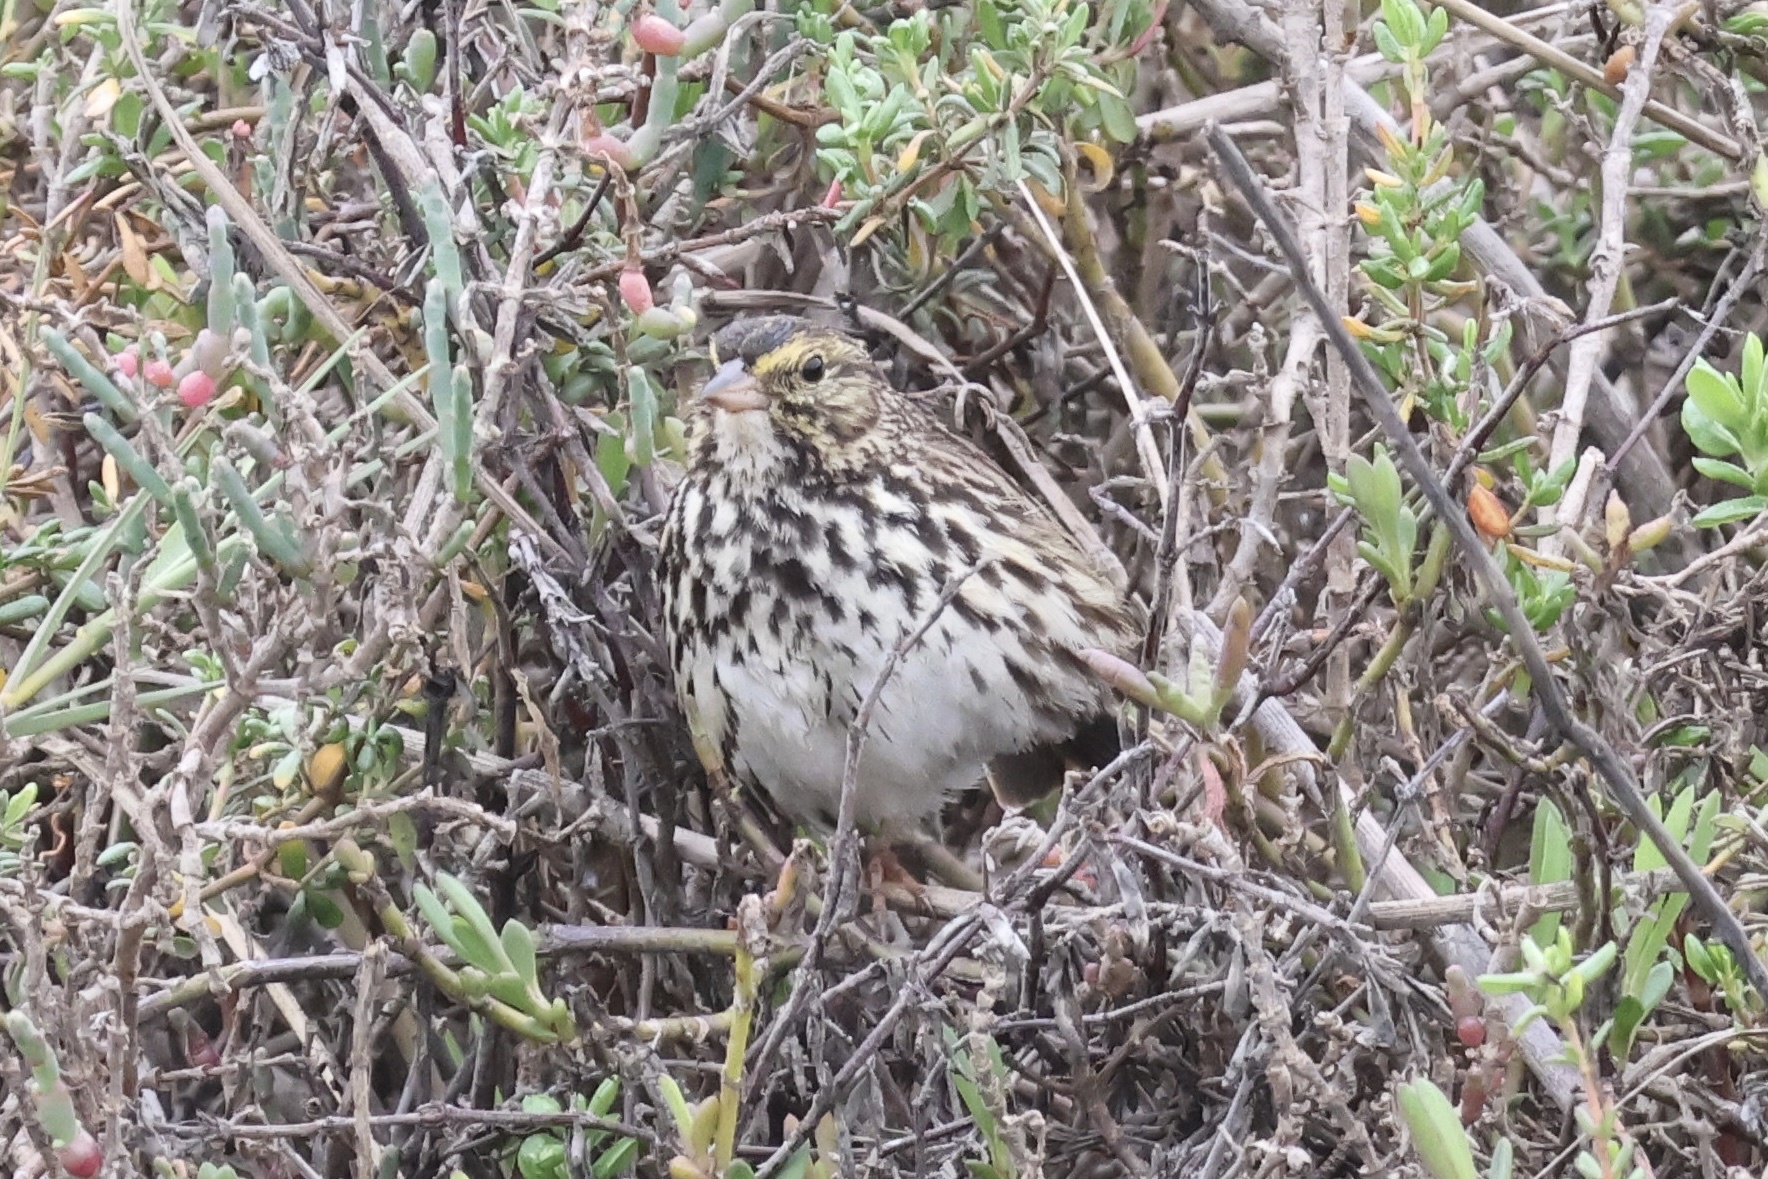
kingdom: Animalia
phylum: Chordata
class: Aves
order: Passeriformes
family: Passerellidae
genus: Passerculus
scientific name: Passerculus sandwichensis
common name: Savannah sparrow
